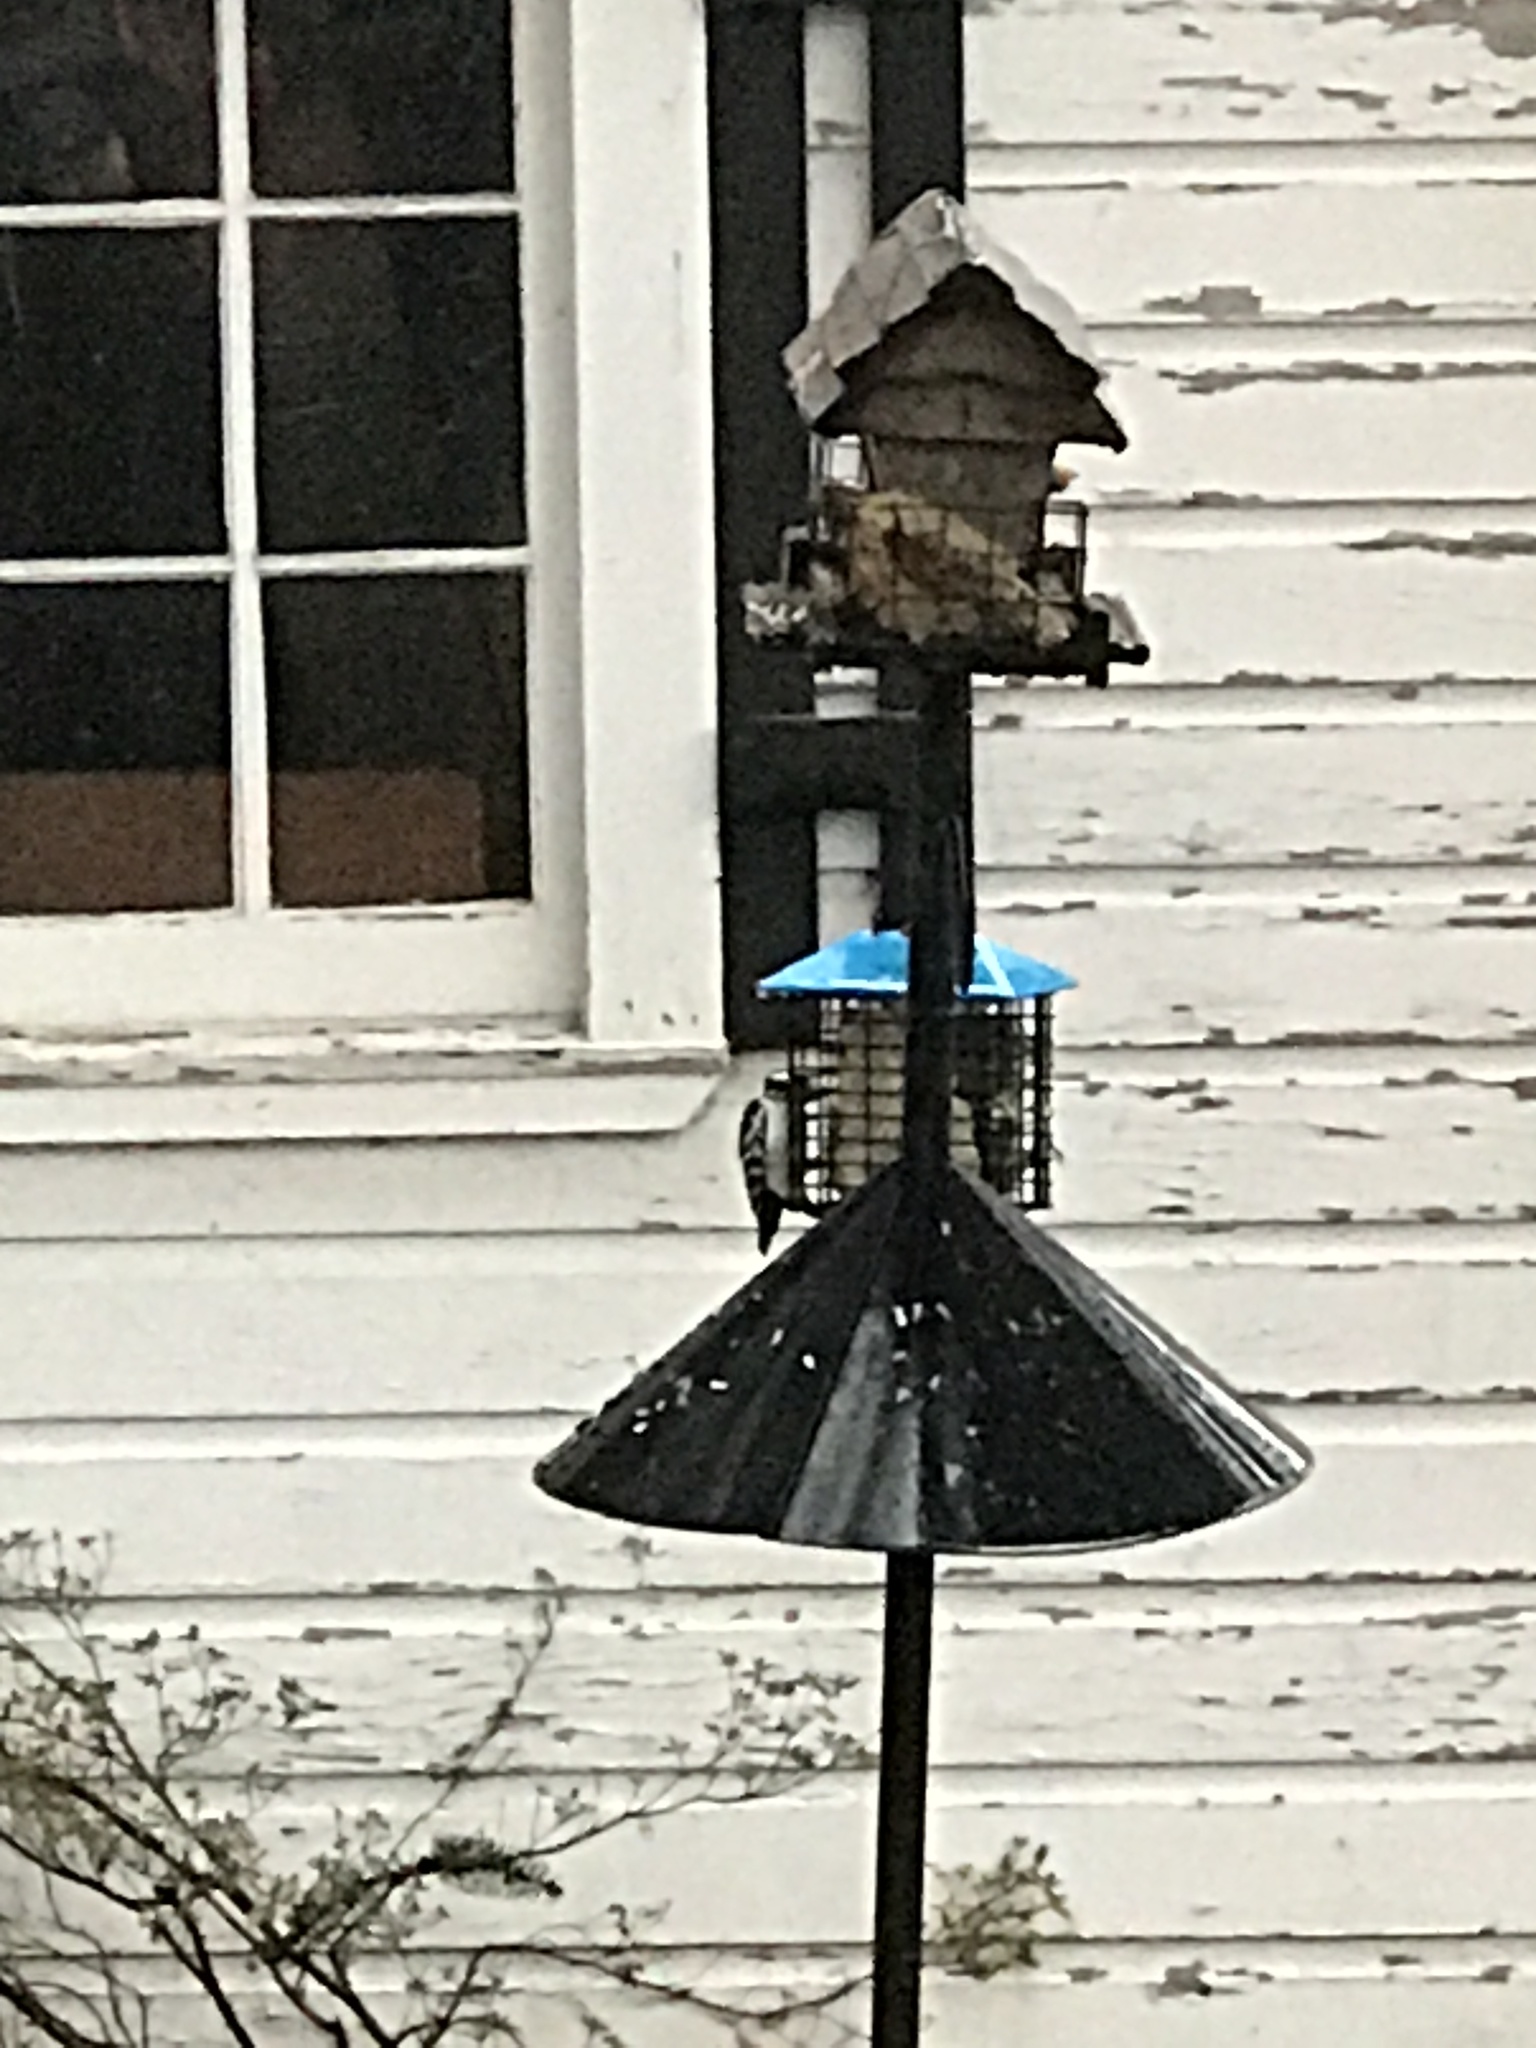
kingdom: Animalia
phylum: Chordata
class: Aves
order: Piciformes
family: Picidae
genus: Dryobates
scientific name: Dryobates pubescens
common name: Downy woodpecker
